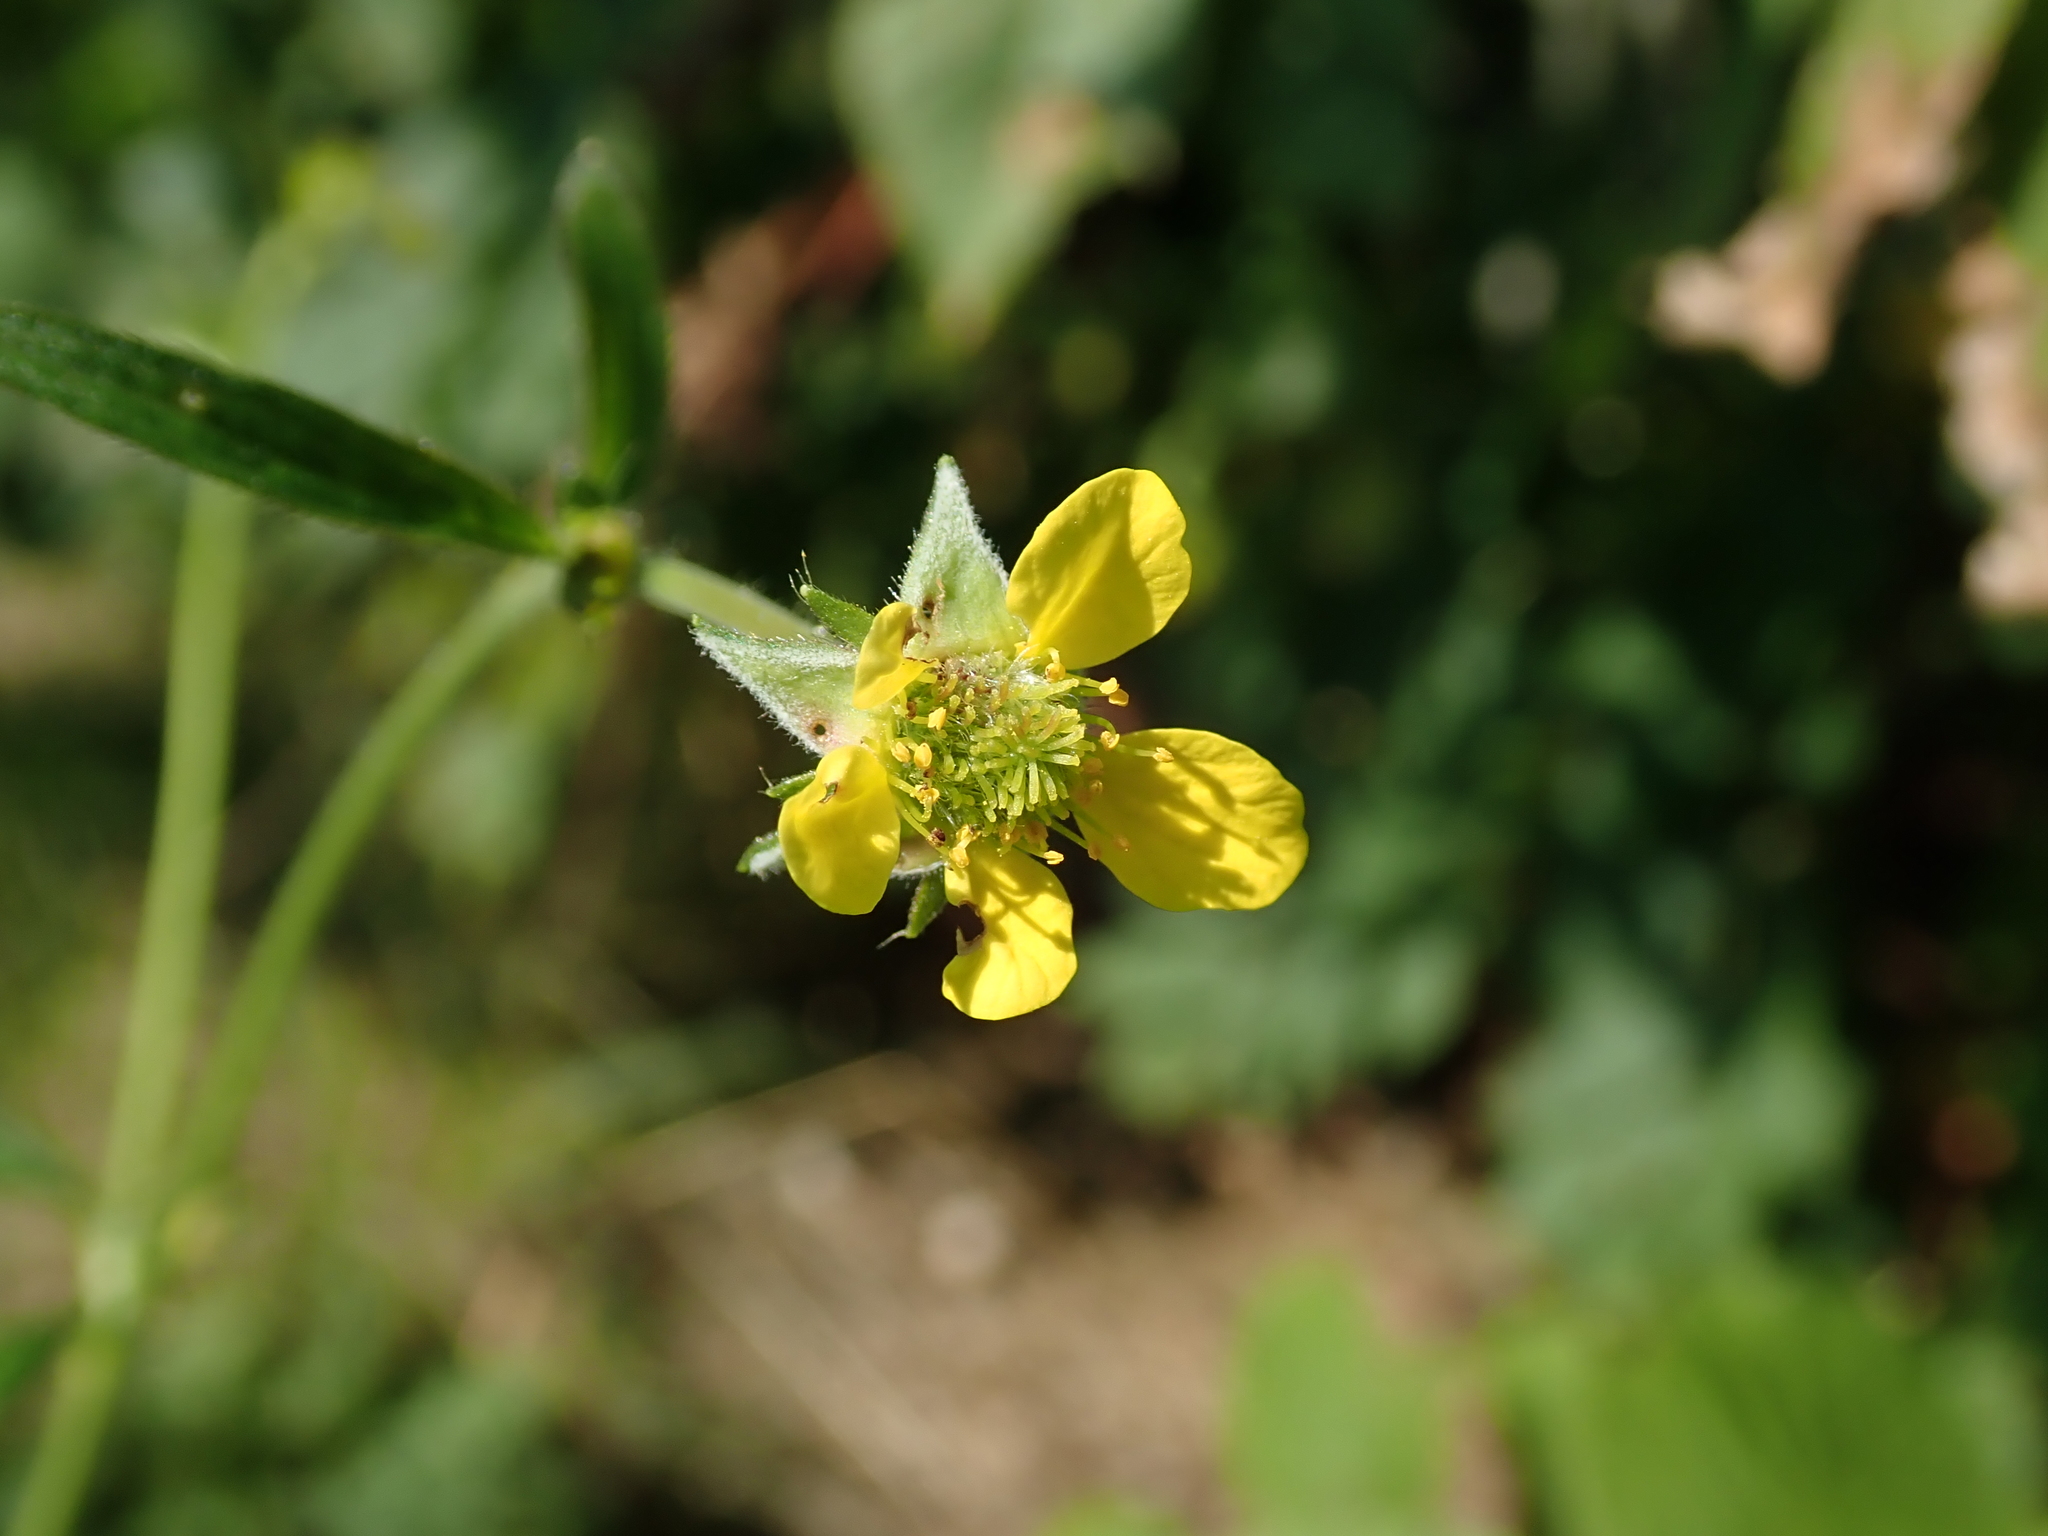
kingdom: Plantae
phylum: Tracheophyta
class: Magnoliopsida
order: Rosales
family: Rosaceae
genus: Geum
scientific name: Geum urbanum
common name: Wood avens
